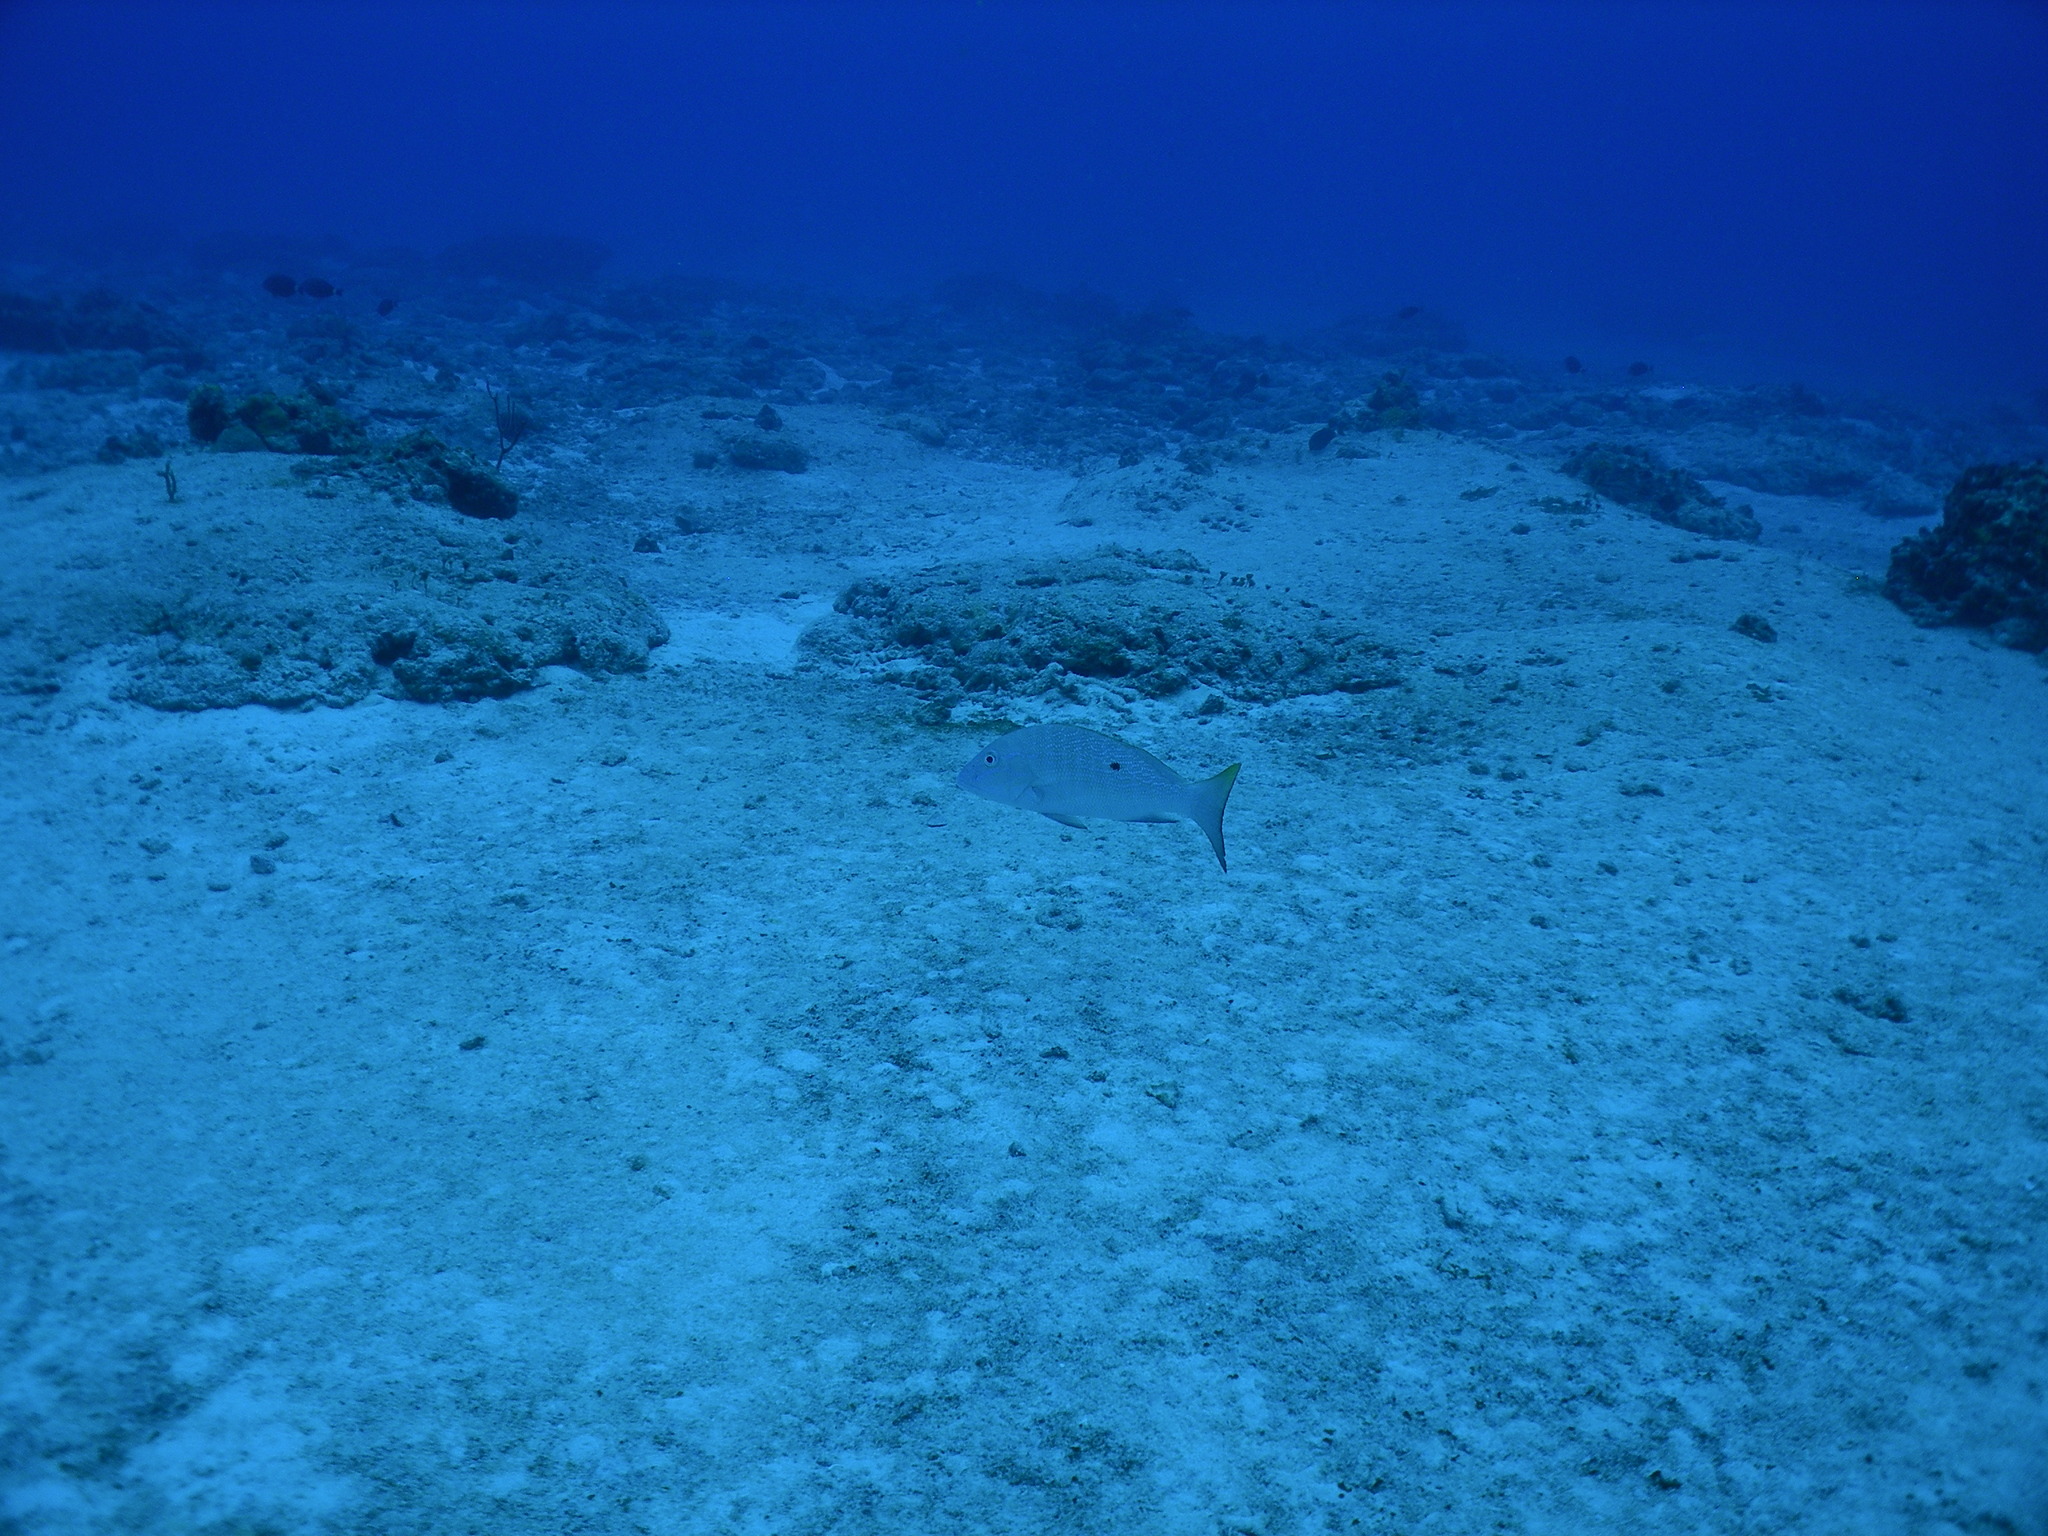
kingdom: Animalia
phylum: Chordata
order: Perciformes
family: Lutjanidae
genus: Lutjanus
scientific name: Lutjanus analis
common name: Mutton snapper
